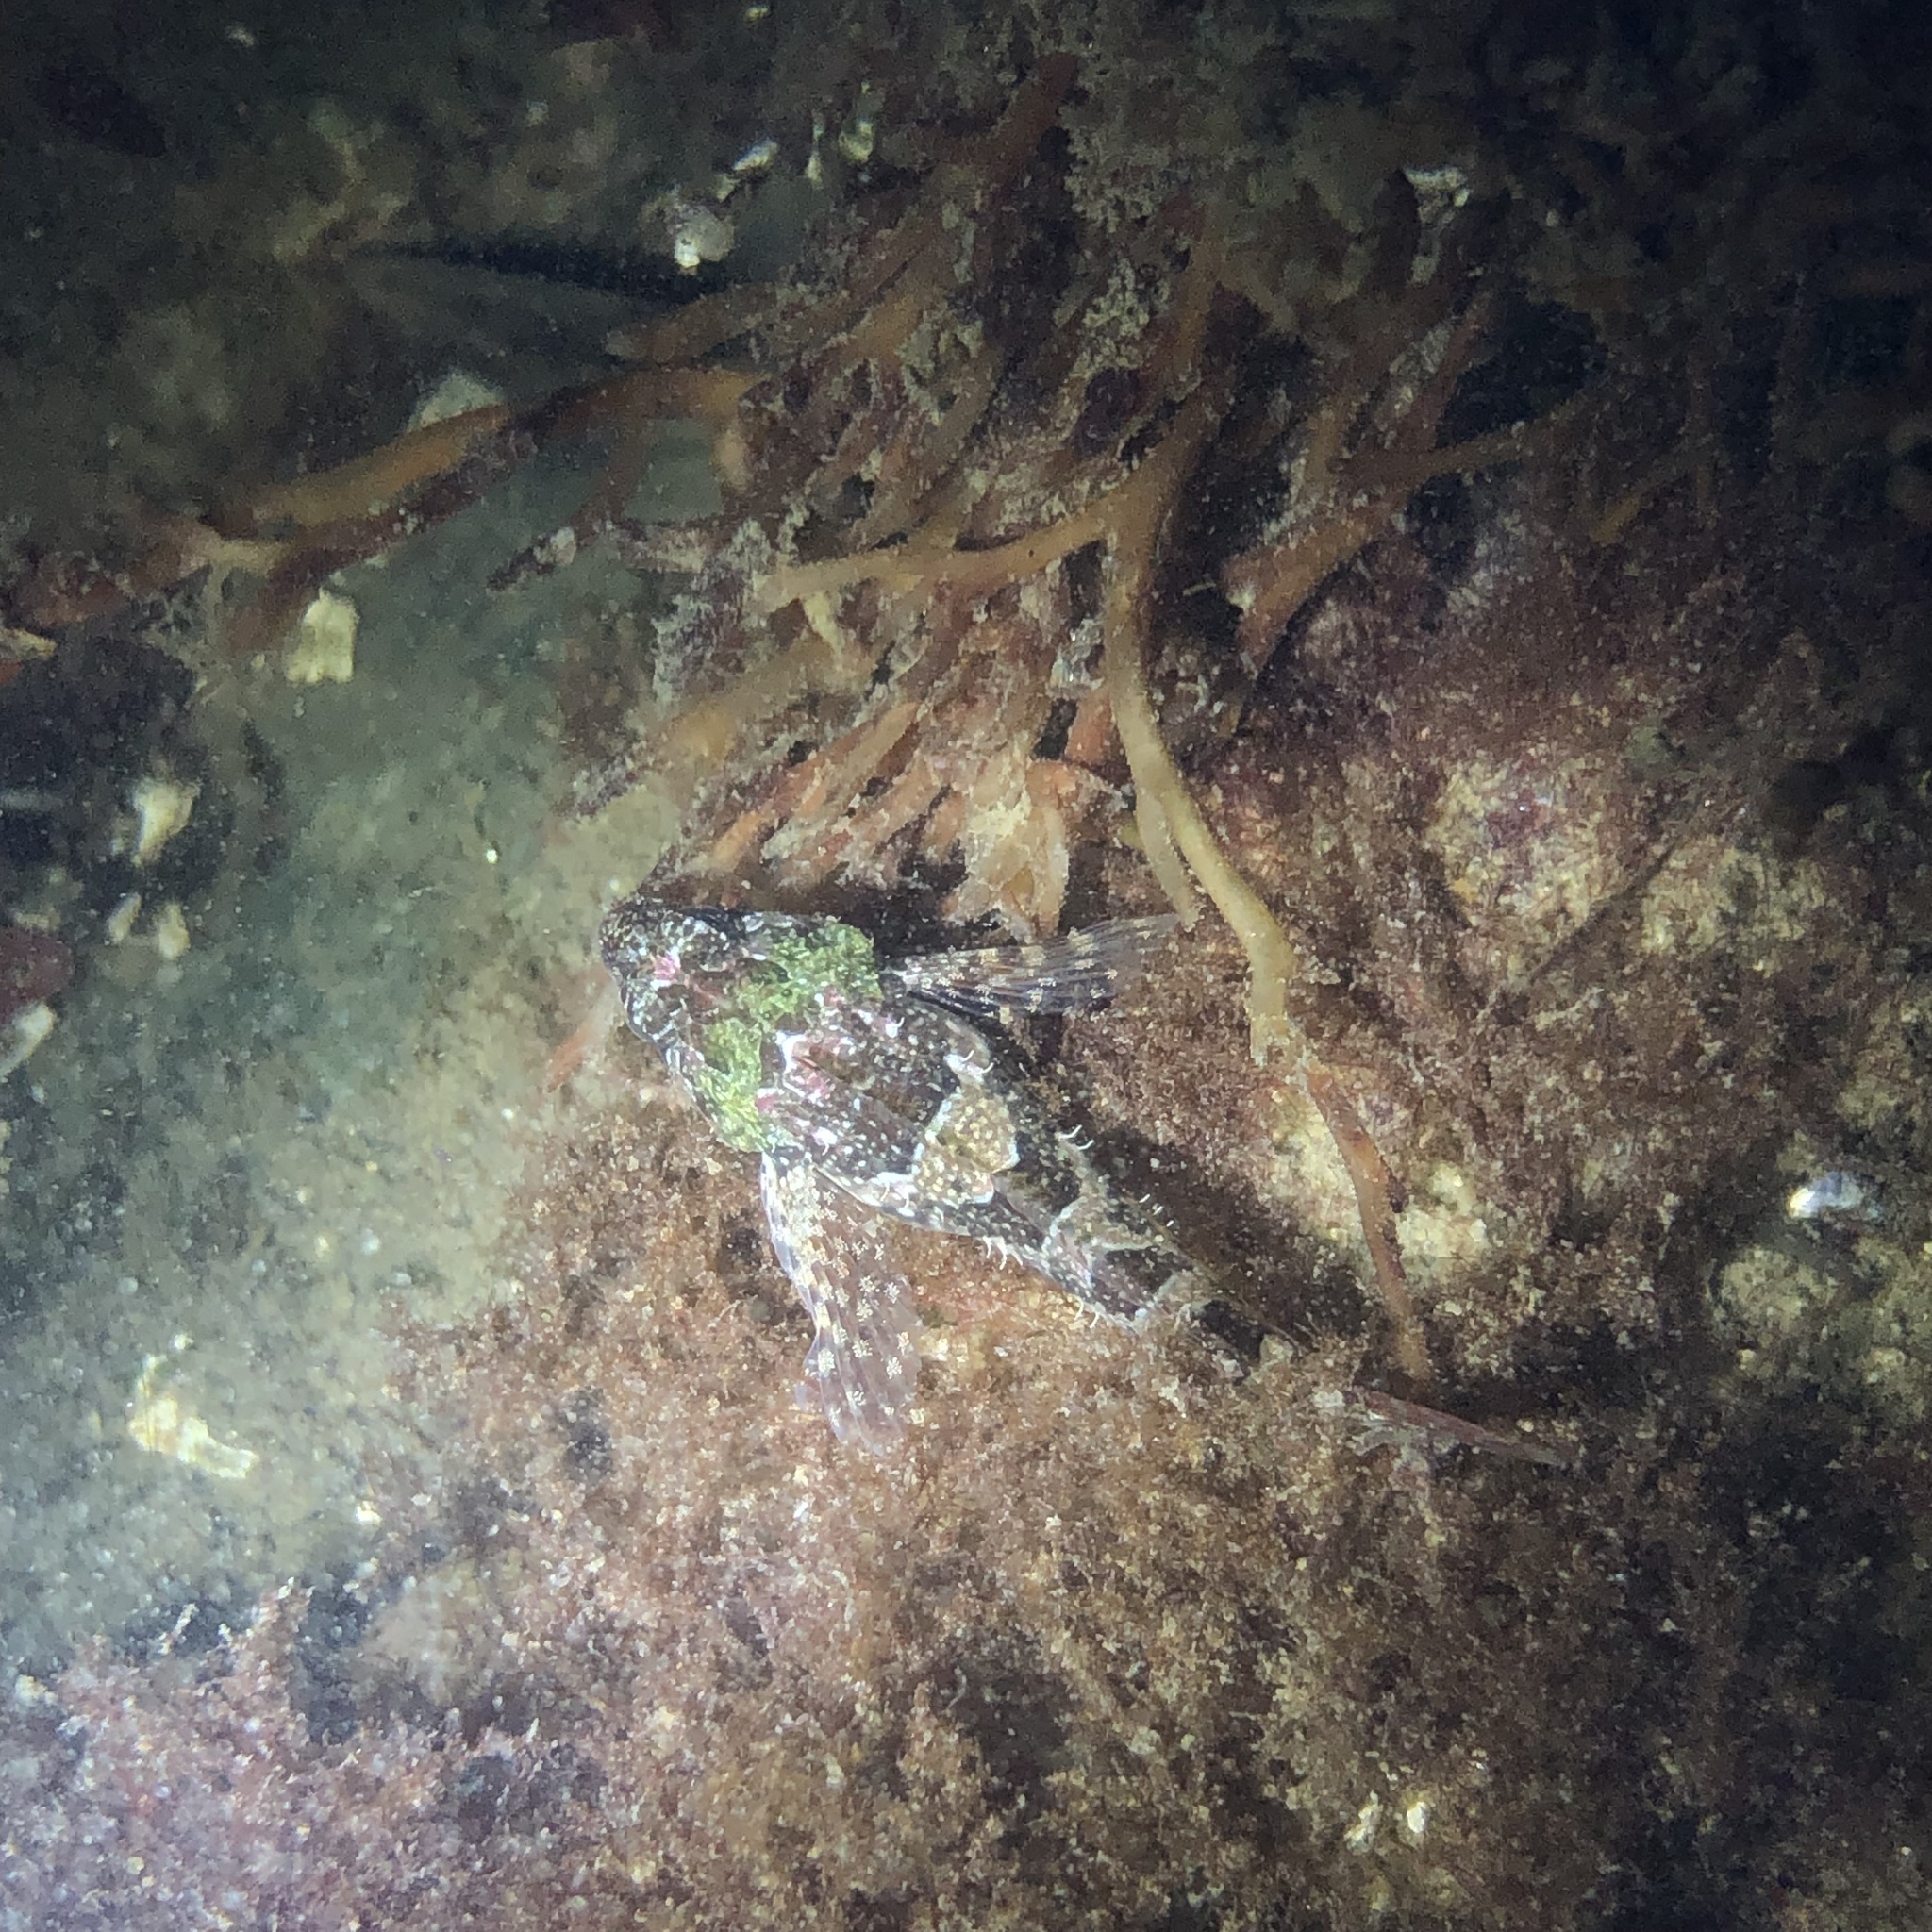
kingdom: Animalia
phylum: Chordata
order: Scorpaeniformes
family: Cottidae
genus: Oligocottus
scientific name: Oligocottus maculosus
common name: Tidepool sculpin
